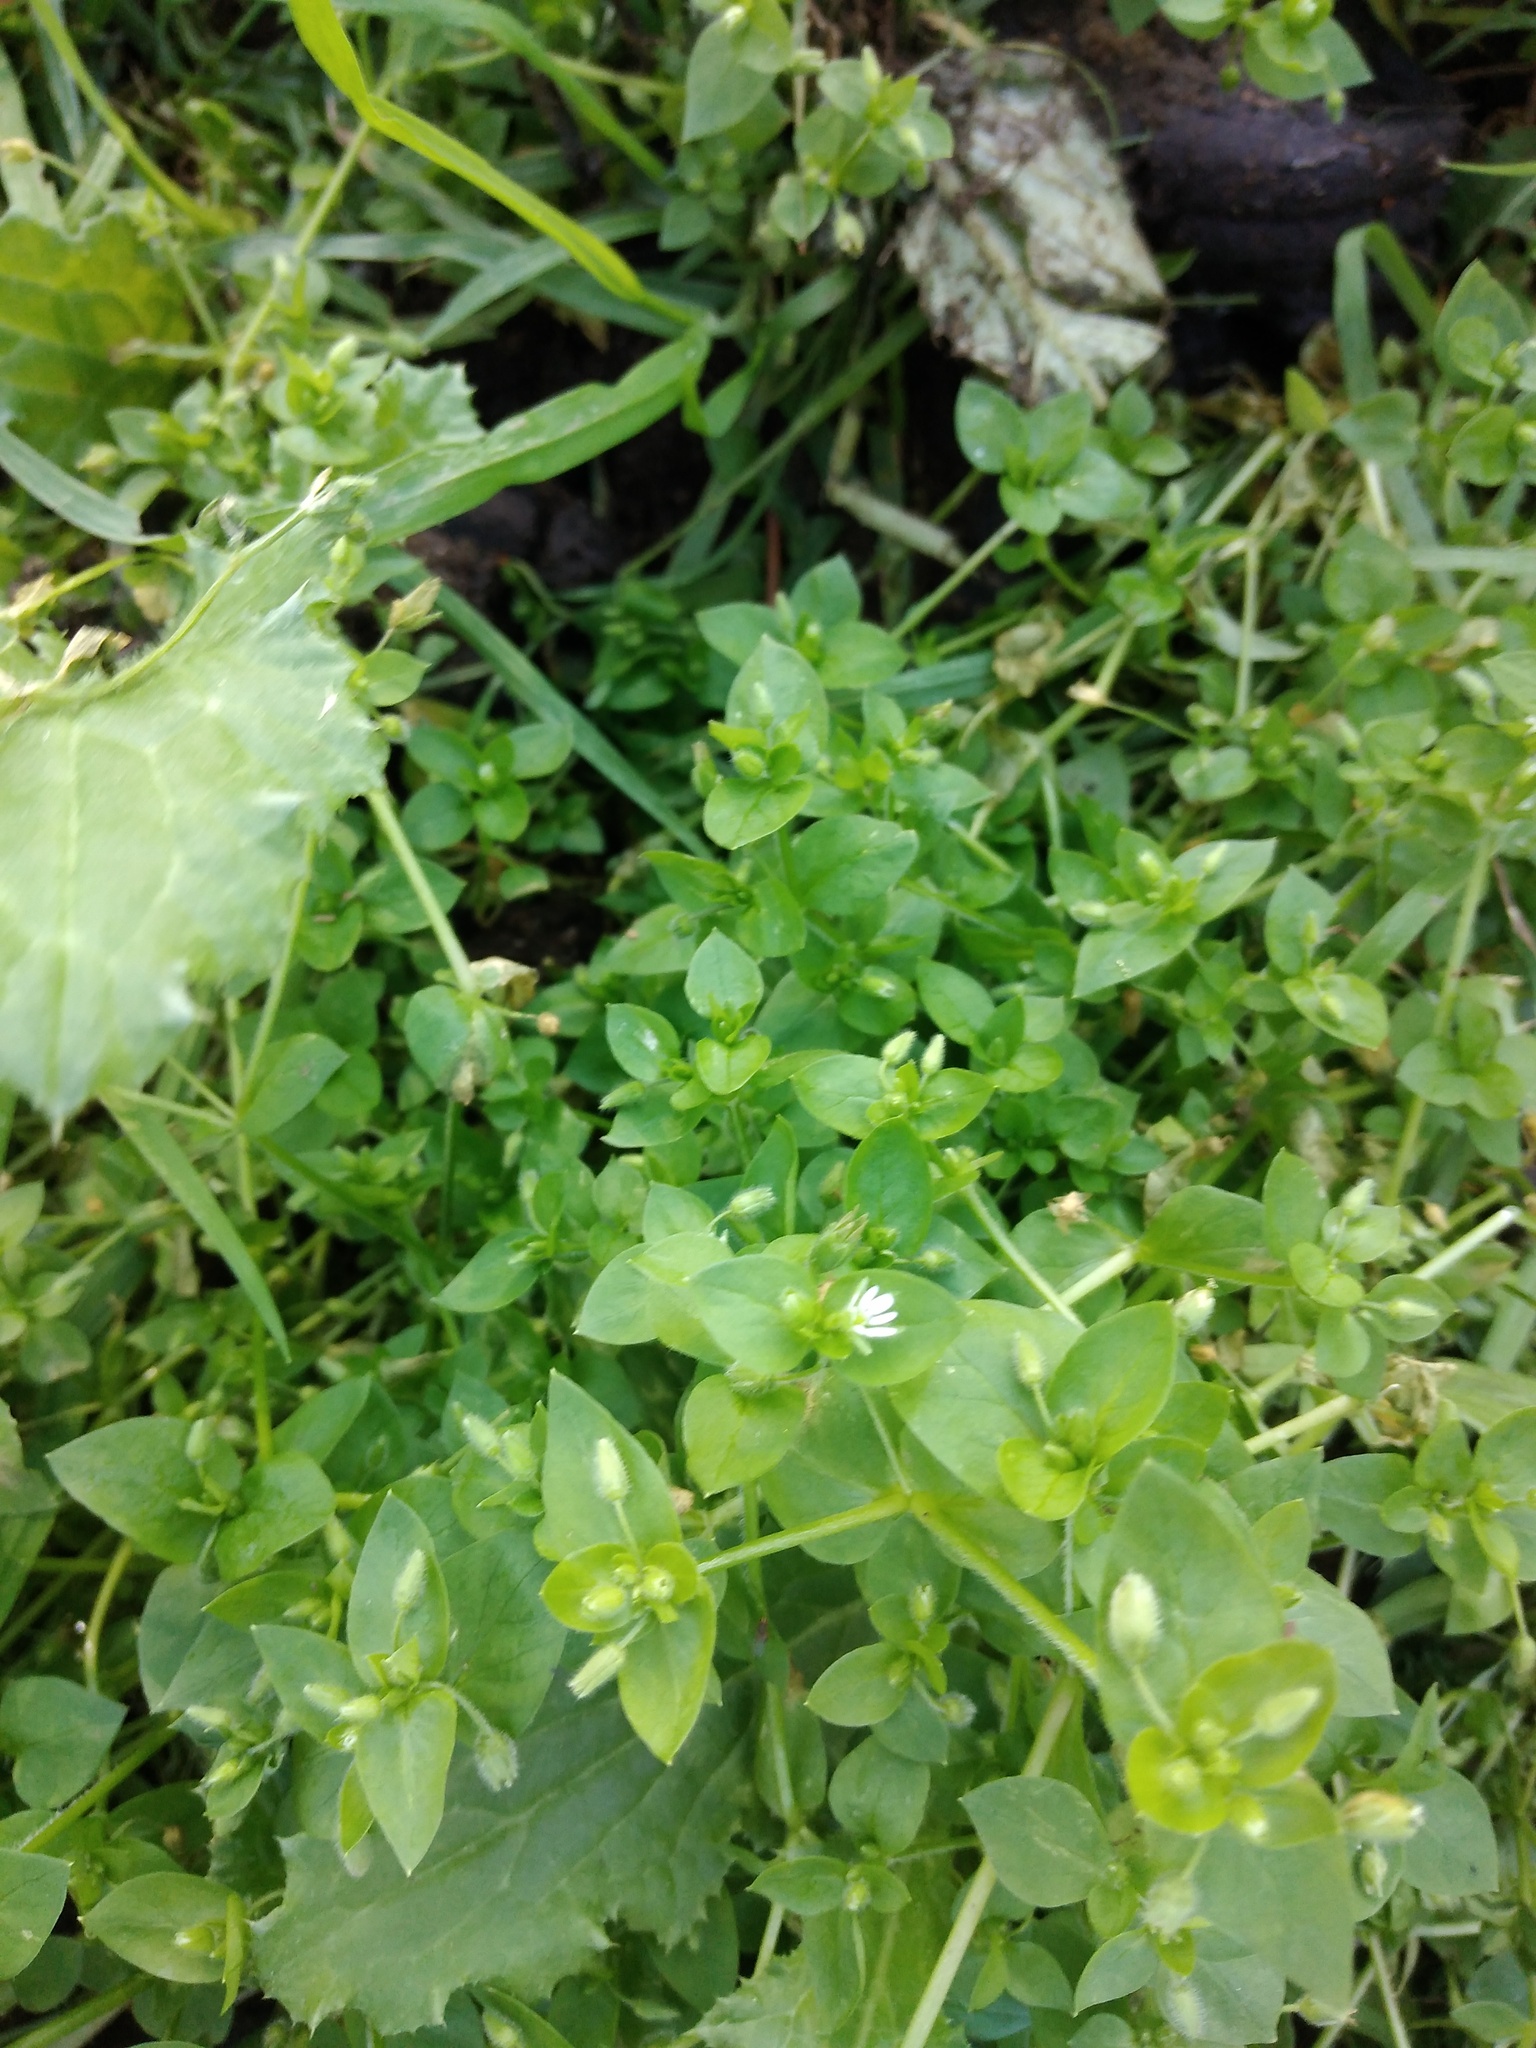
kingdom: Plantae
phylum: Tracheophyta
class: Magnoliopsida
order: Caryophyllales
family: Caryophyllaceae
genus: Stellaria
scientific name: Stellaria media
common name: Common chickweed
